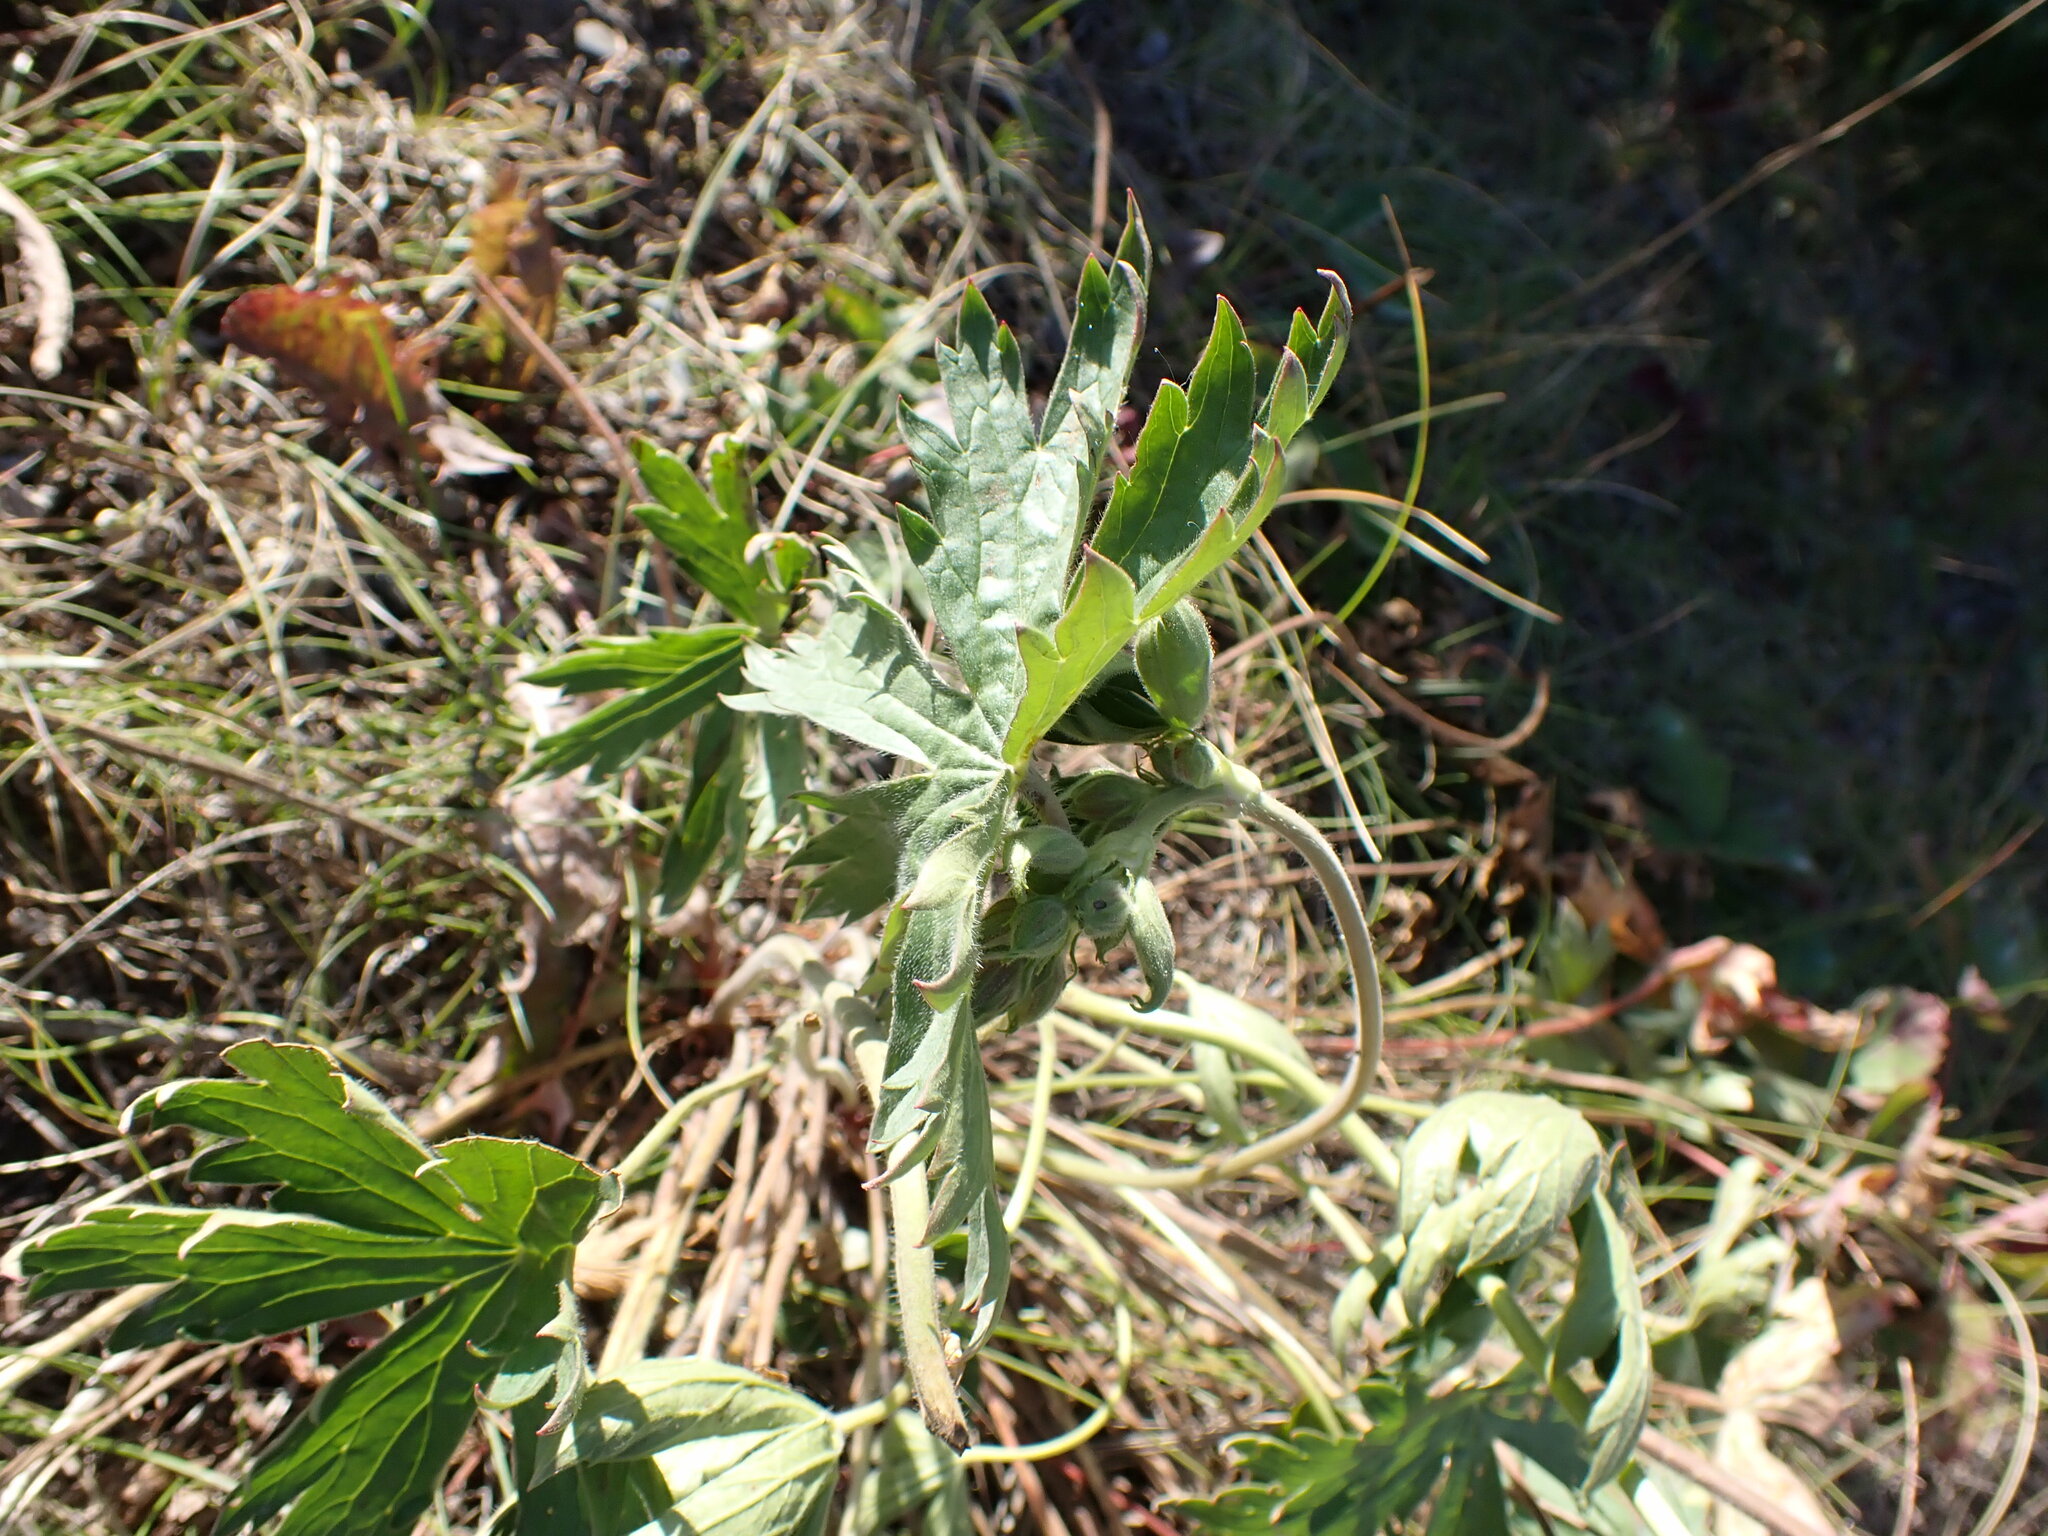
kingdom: Plantae
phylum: Tracheophyta
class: Magnoliopsida
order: Geraniales
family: Geraniaceae
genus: Geranium
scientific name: Geranium viscosissimum
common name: Purple geranium
